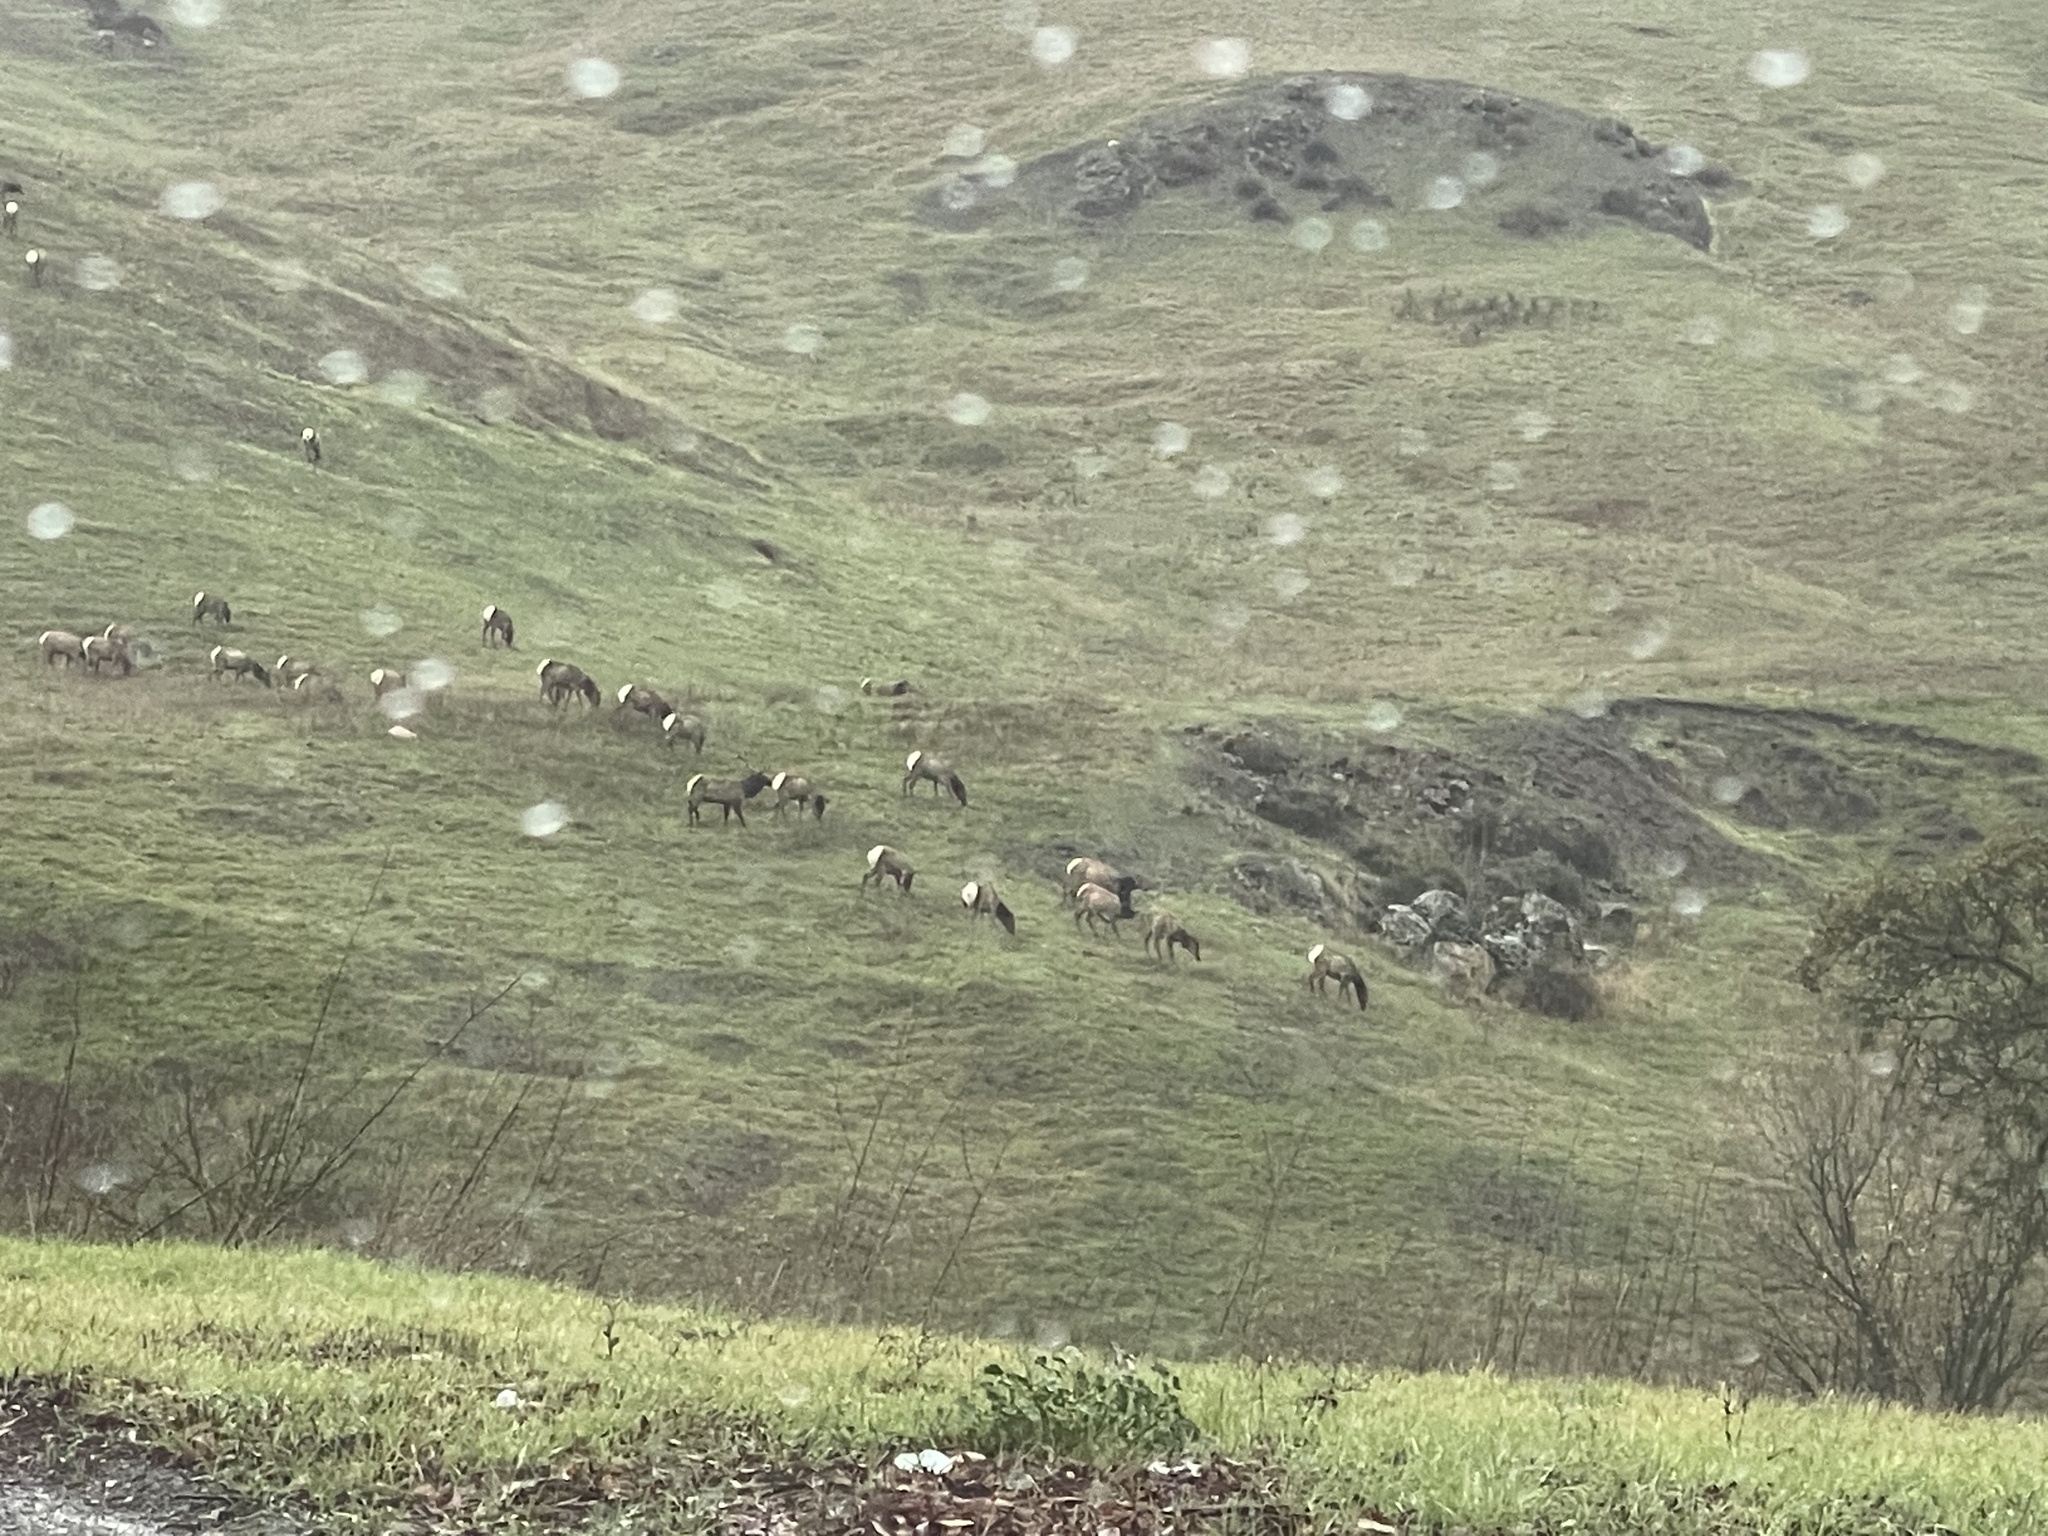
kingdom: Animalia
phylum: Chordata
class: Mammalia
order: Artiodactyla
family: Cervidae
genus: Cervus
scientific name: Cervus elaphus
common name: Red deer
